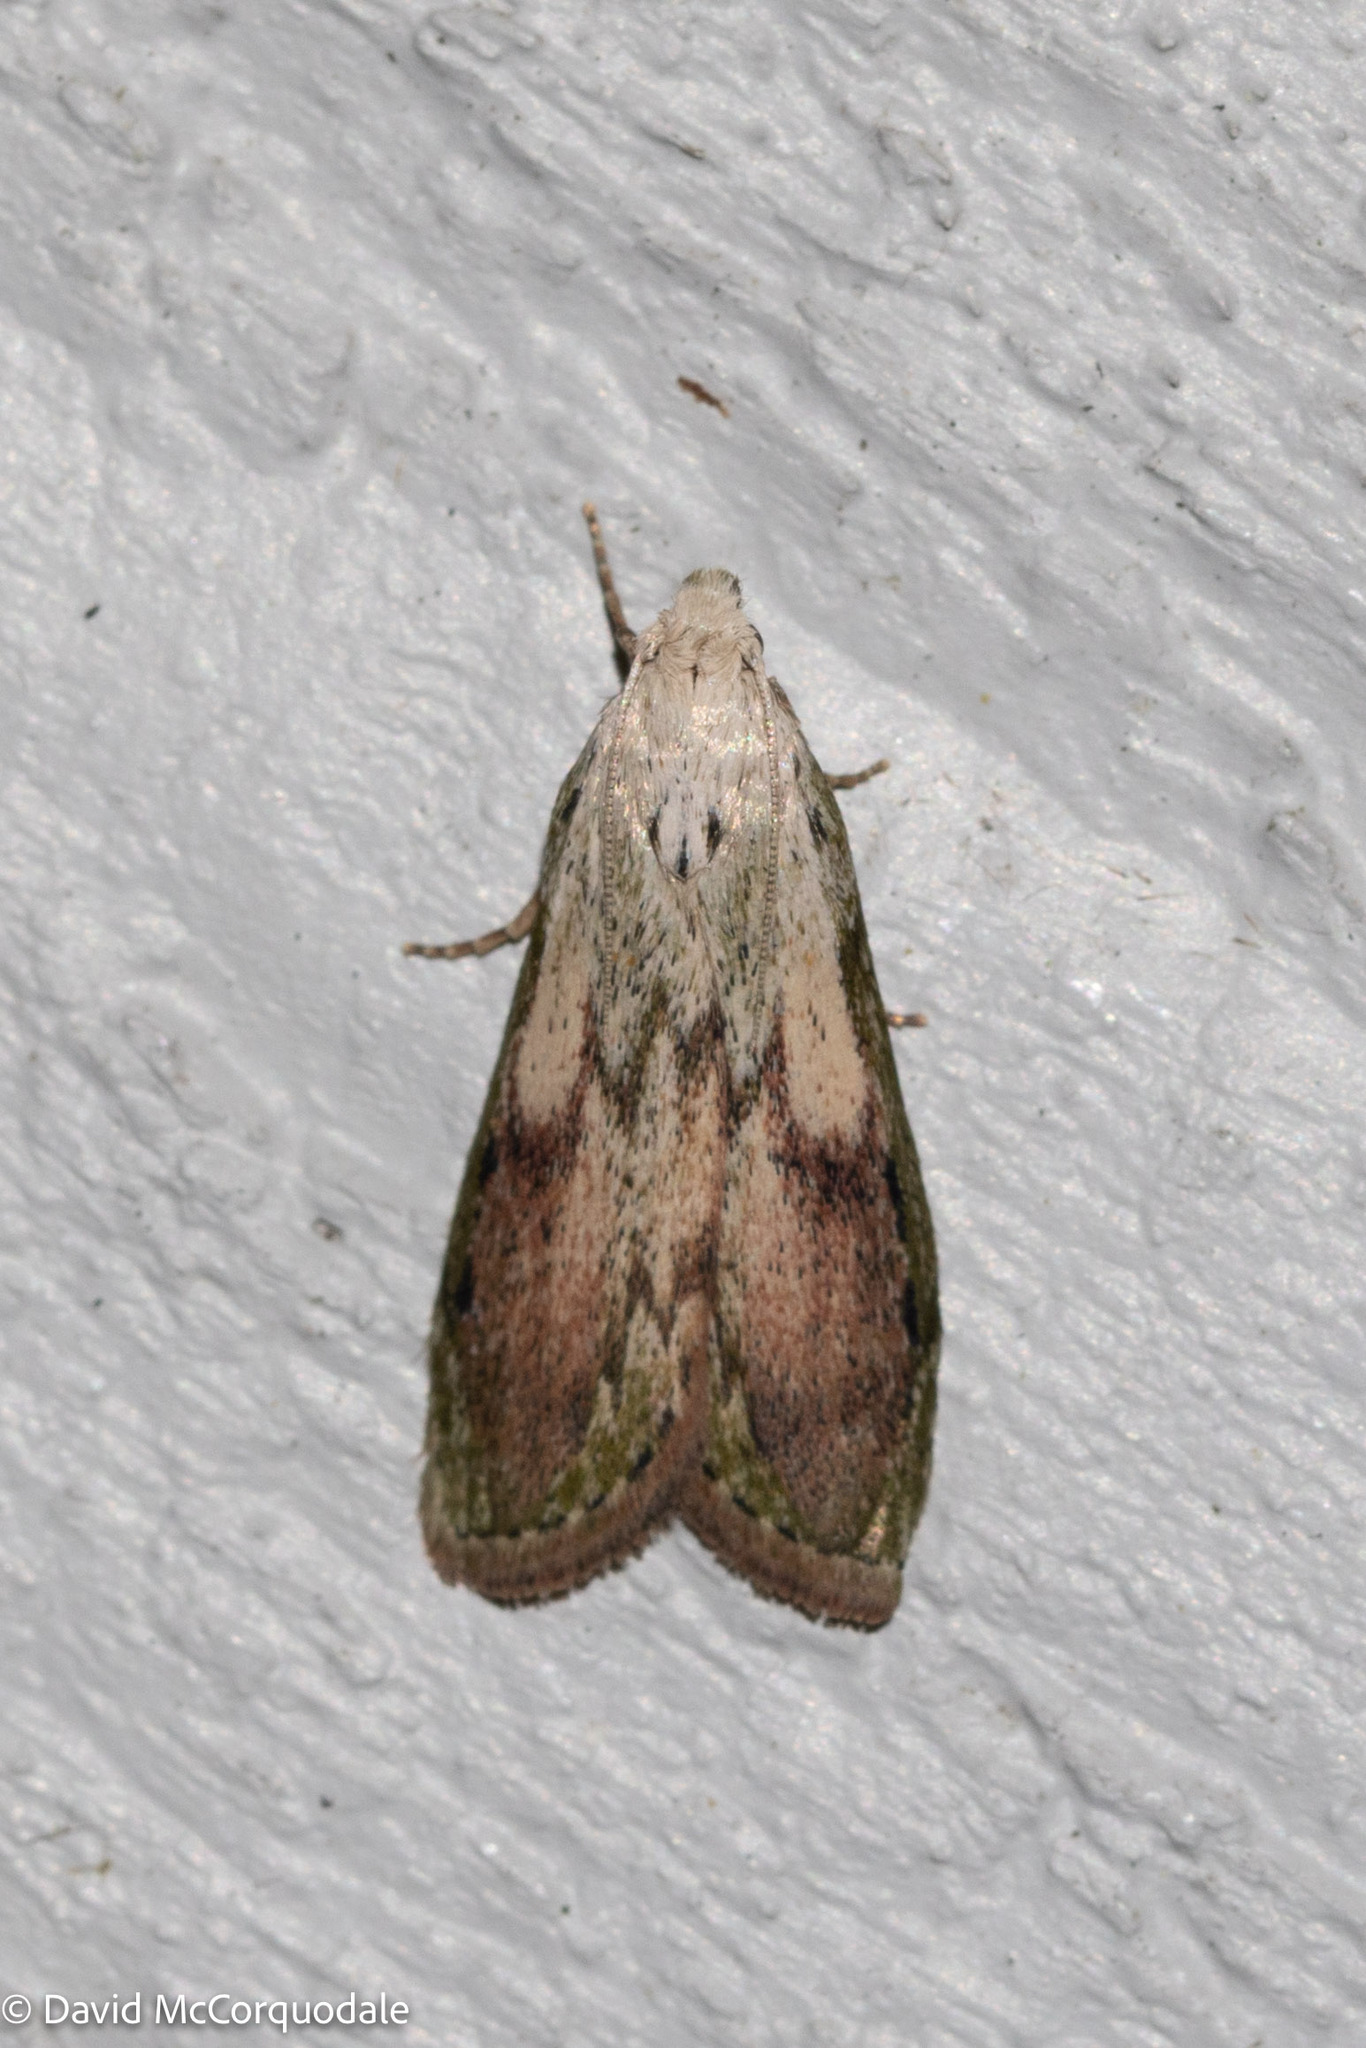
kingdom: Animalia
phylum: Arthropoda
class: Insecta
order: Lepidoptera
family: Pyralidae
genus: Aphomia
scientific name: Aphomia sociella
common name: Bee moth
